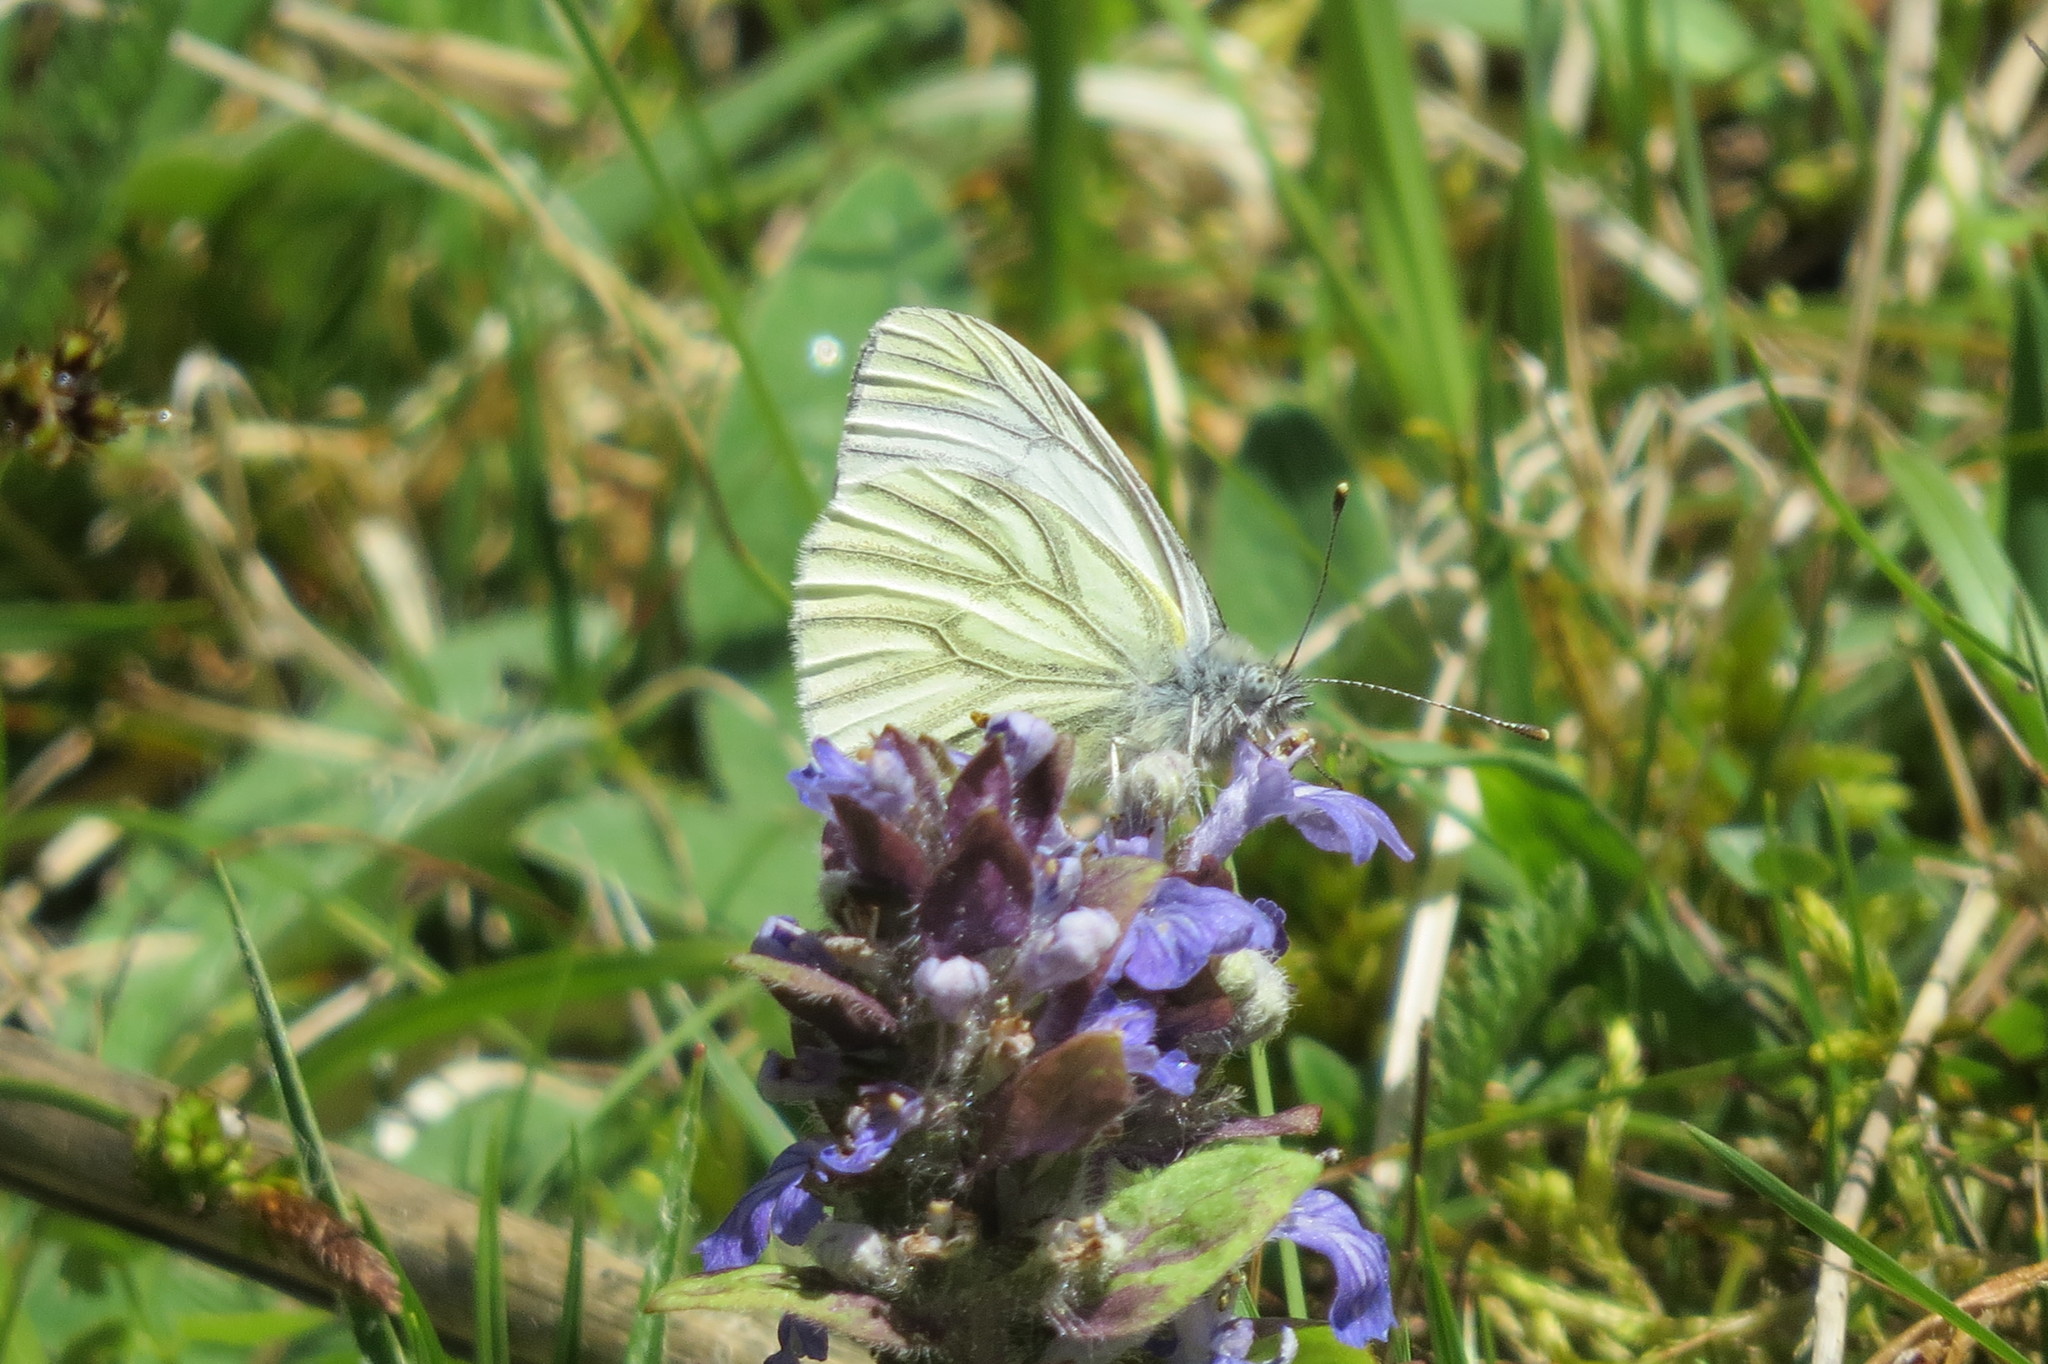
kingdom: Animalia
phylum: Arthropoda
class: Insecta
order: Lepidoptera
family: Pieridae
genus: Pieris
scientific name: Pieris napi
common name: Green-veined white
